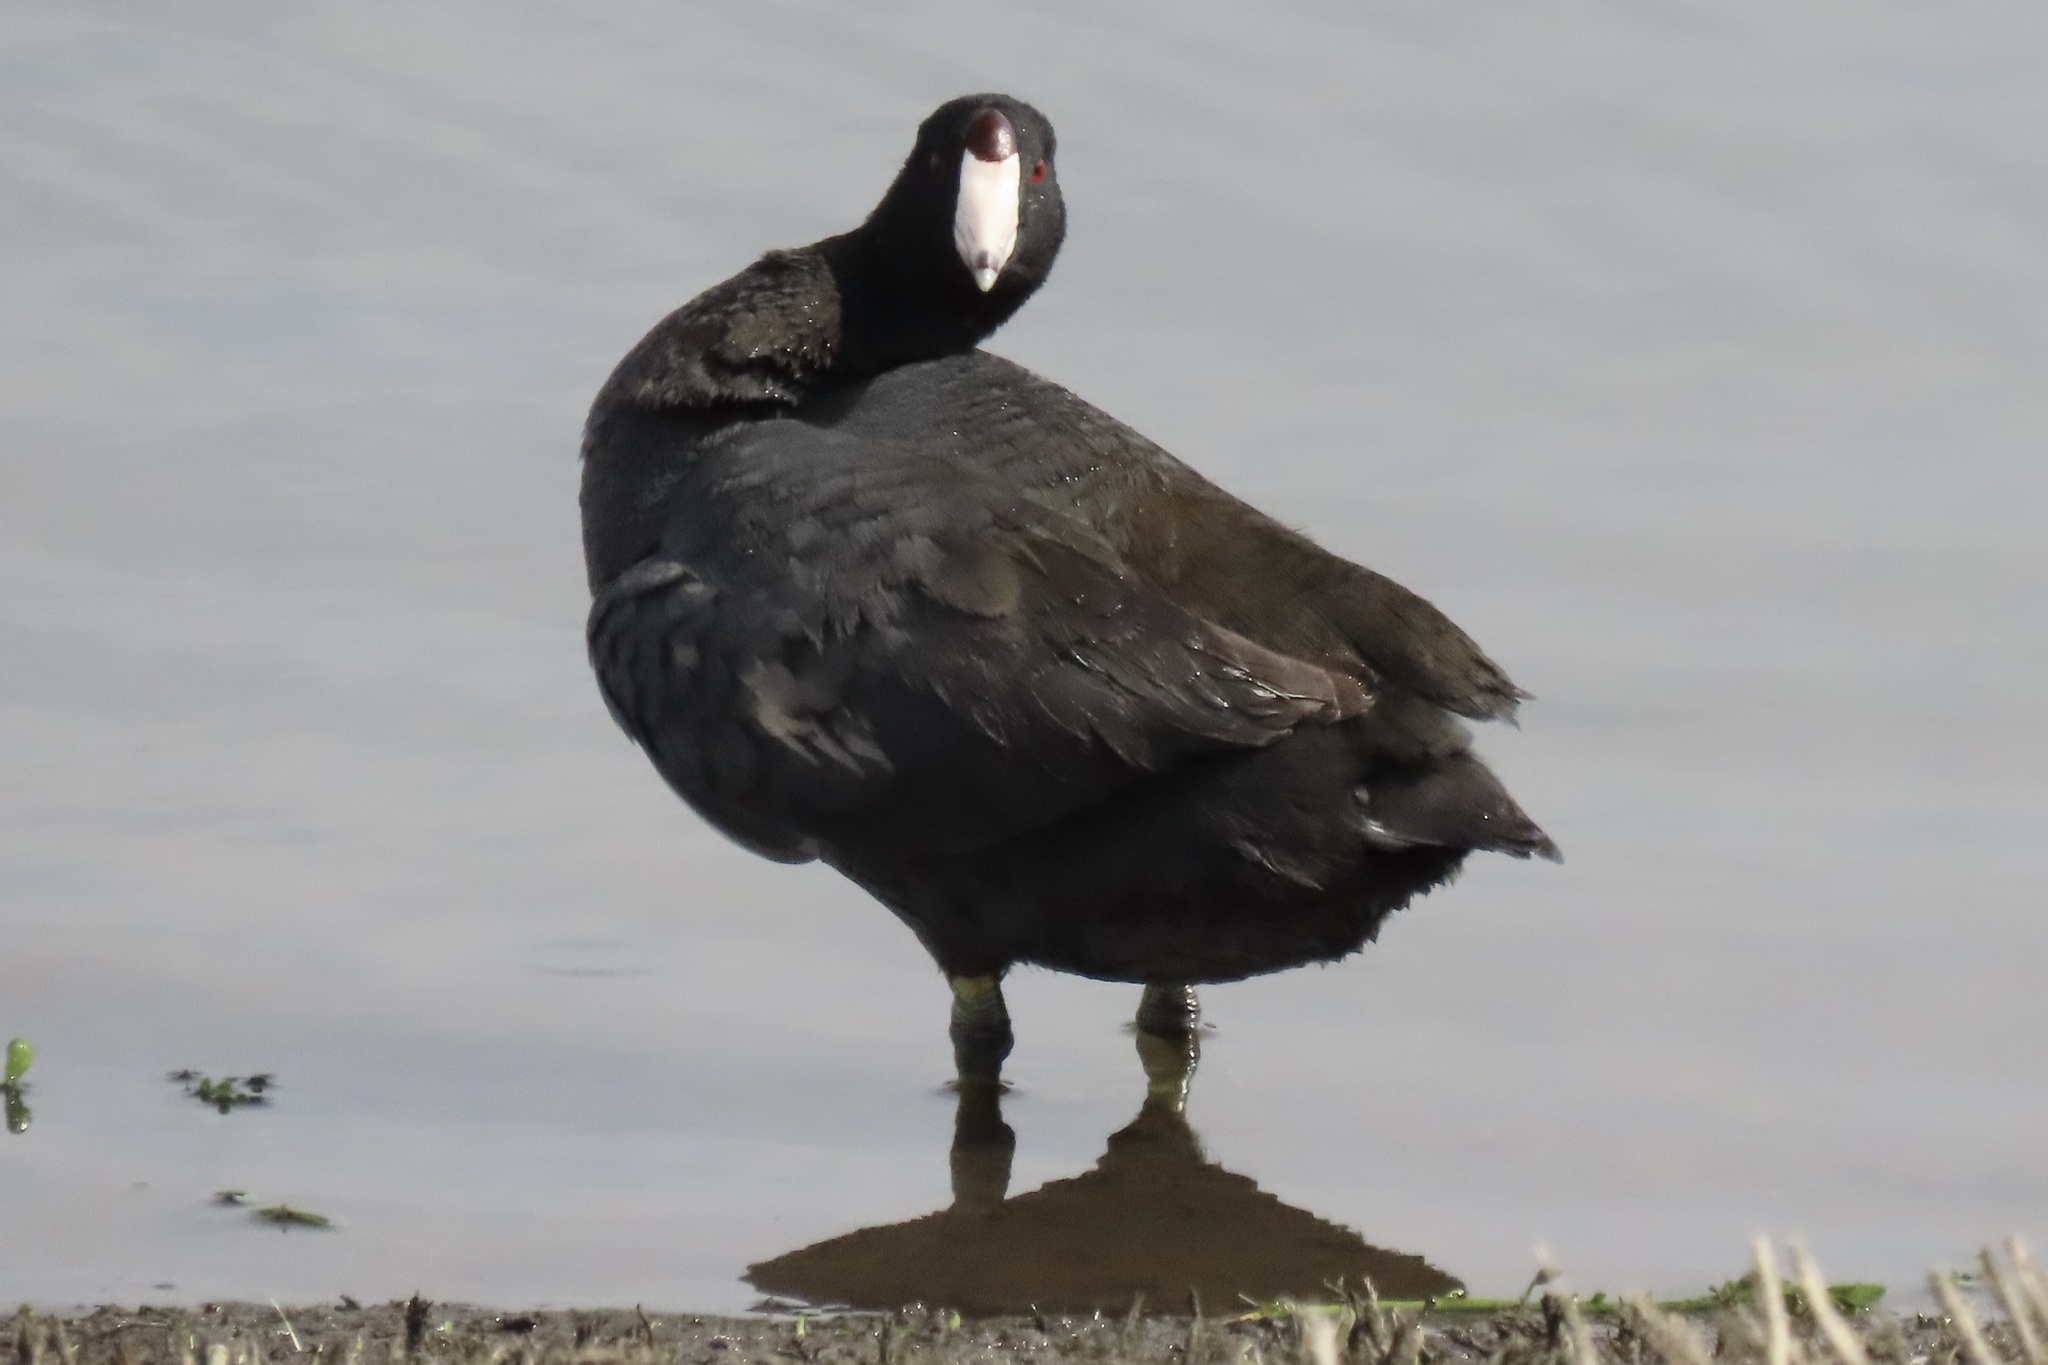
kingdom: Animalia
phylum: Chordata
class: Aves
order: Gruiformes
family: Rallidae
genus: Fulica
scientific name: Fulica americana
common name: American coot
